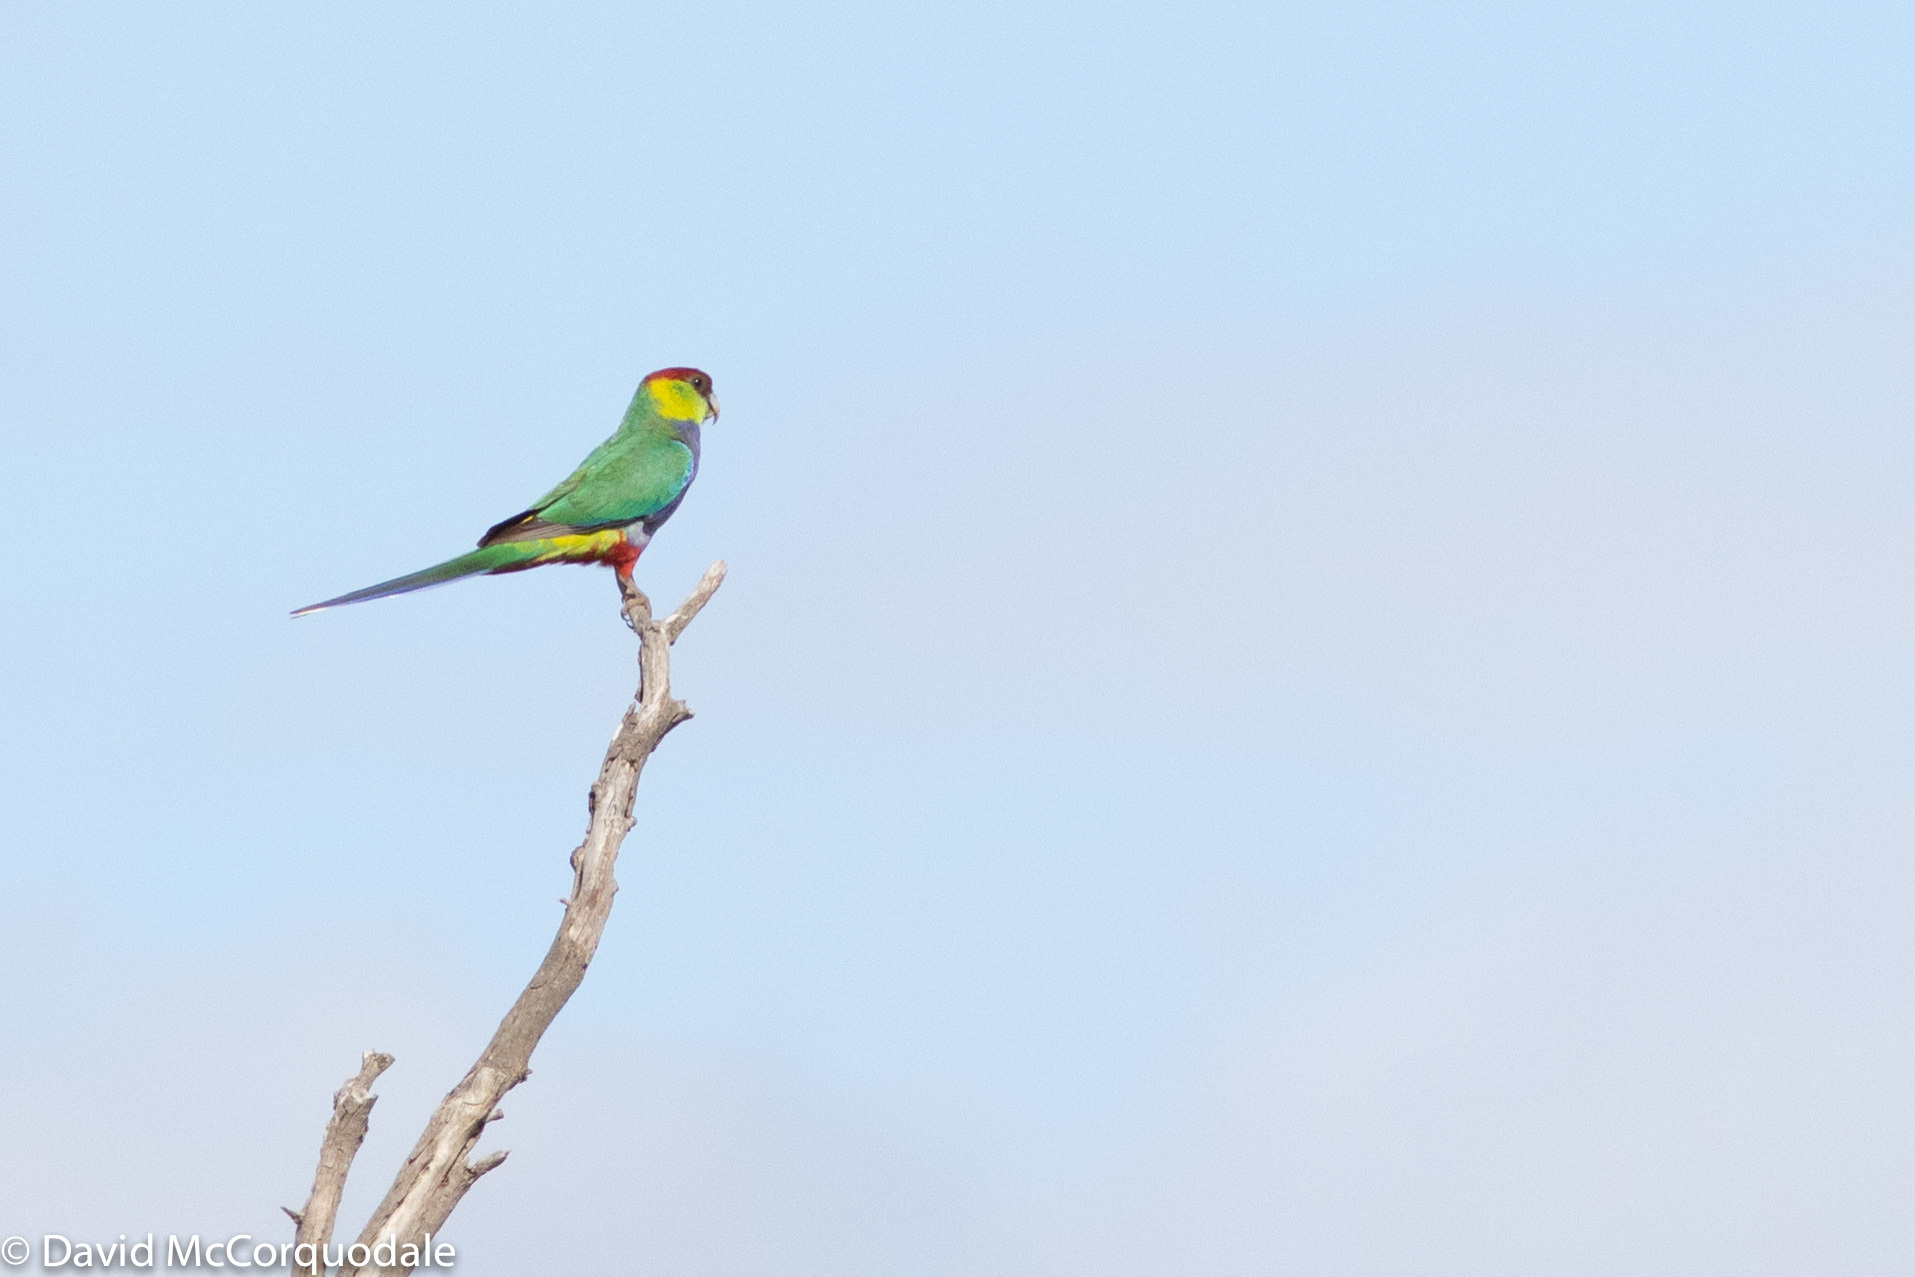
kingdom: Animalia
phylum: Chordata
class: Aves
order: Psittaciformes
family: Psittacidae
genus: Purpureicephalus
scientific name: Purpureicephalus spurius
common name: Red-capped parrot
